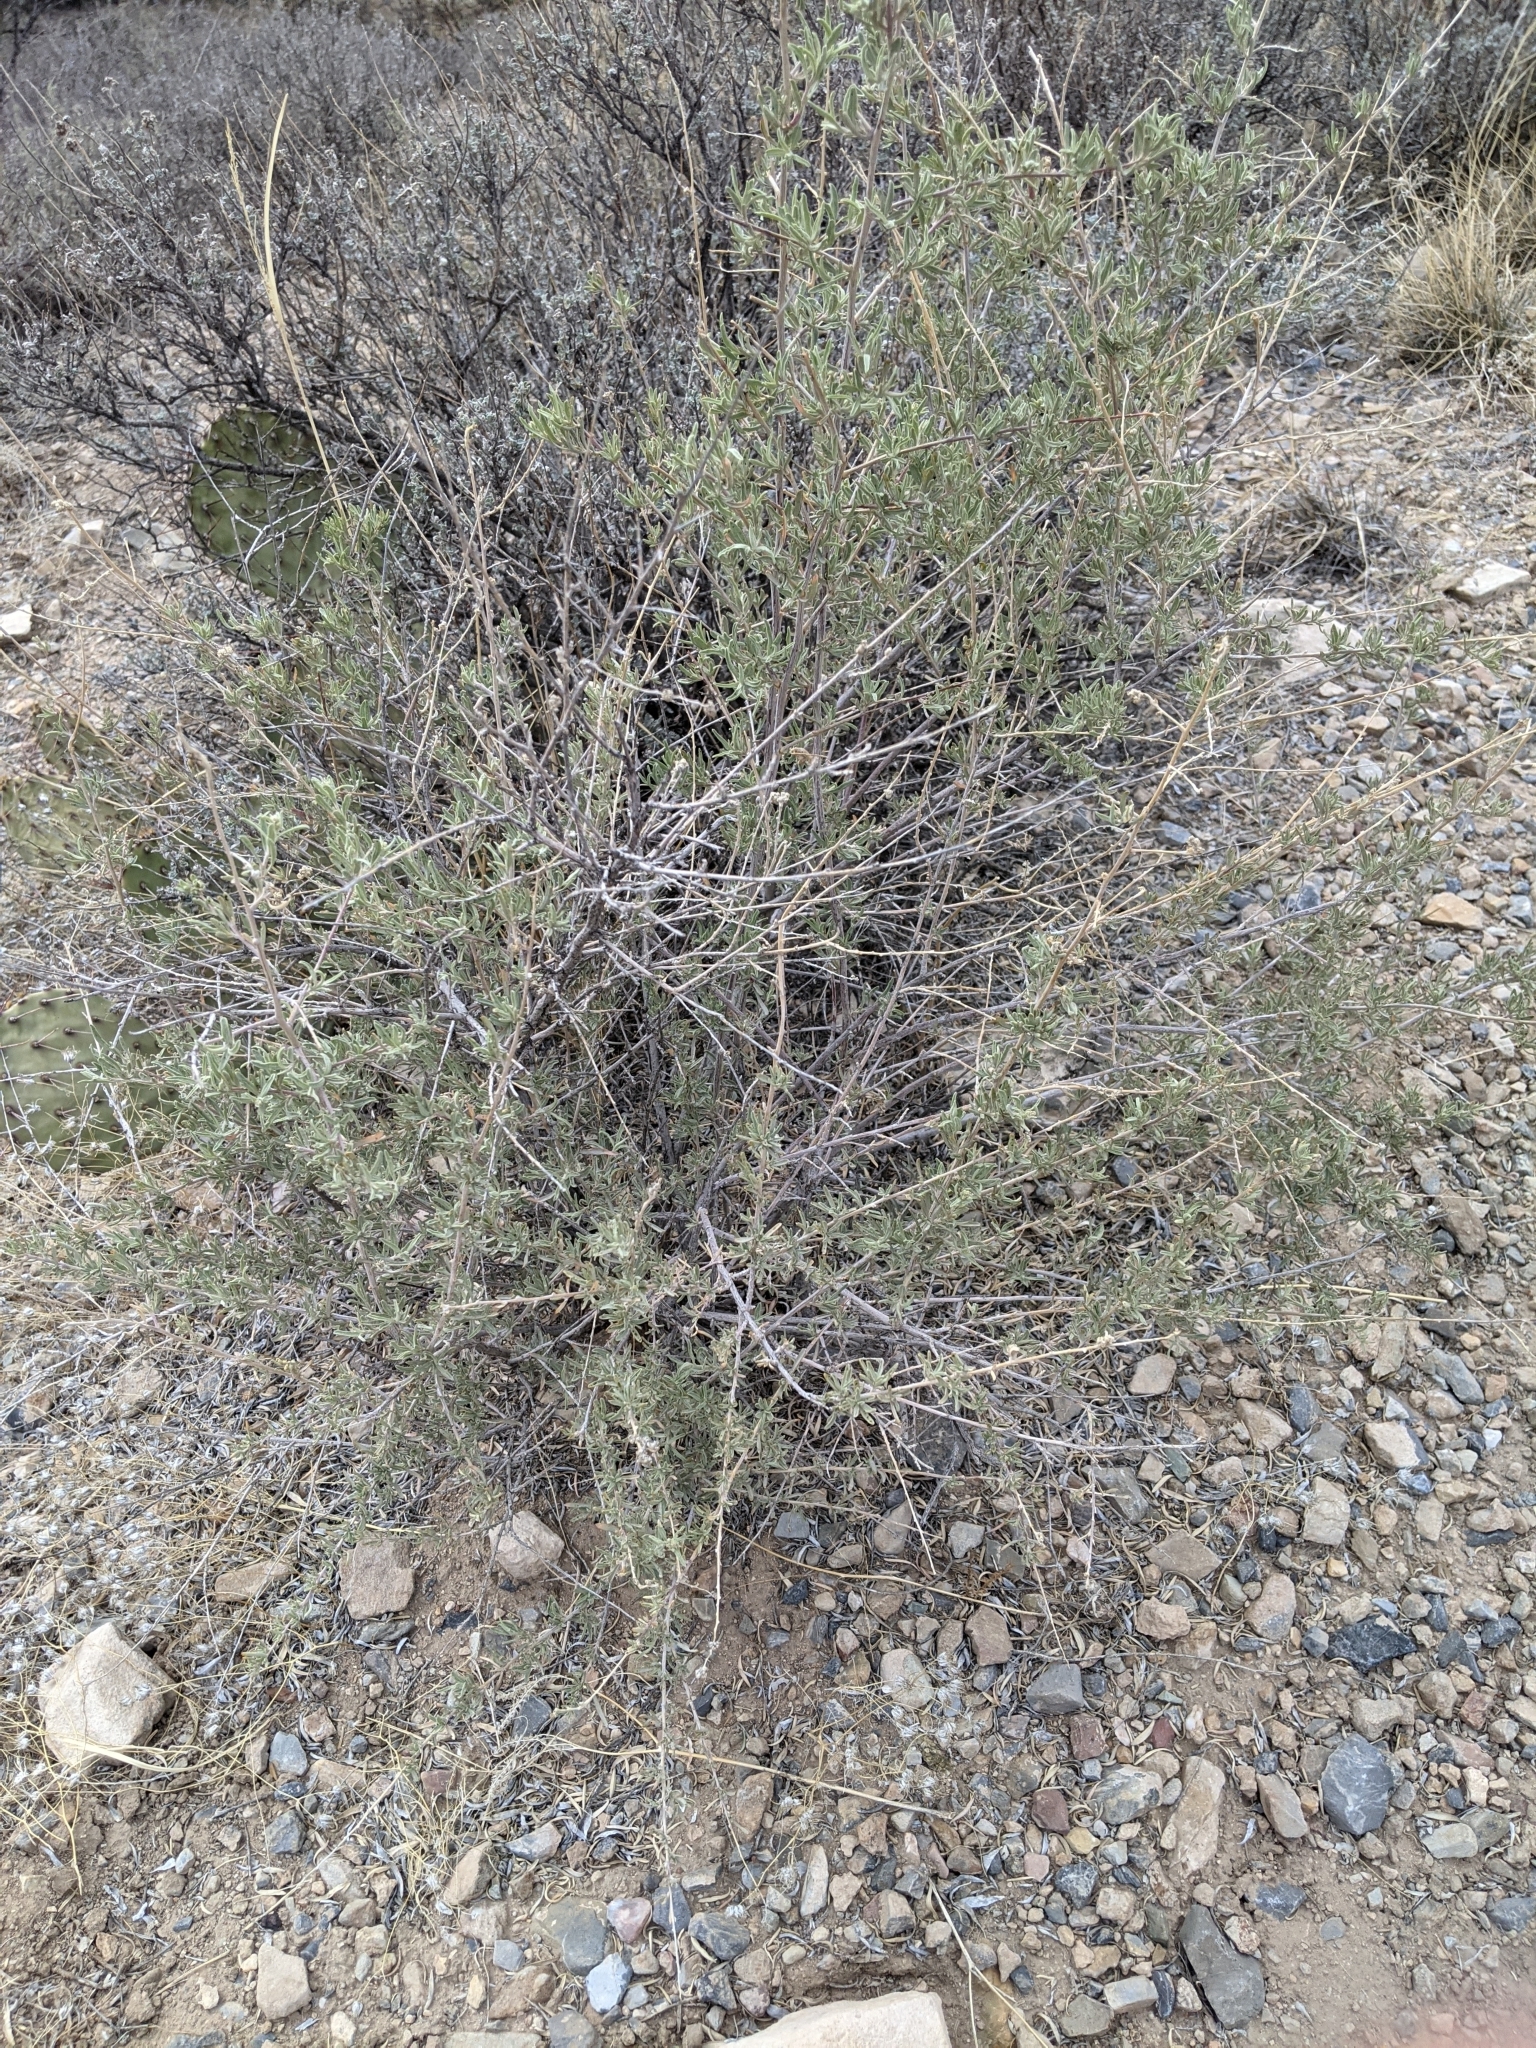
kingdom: Plantae
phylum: Tracheophyta
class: Magnoliopsida
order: Caryophyllales
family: Amaranthaceae
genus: Atriplex
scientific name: Atriplex canescens
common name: Four-wing saltbush
